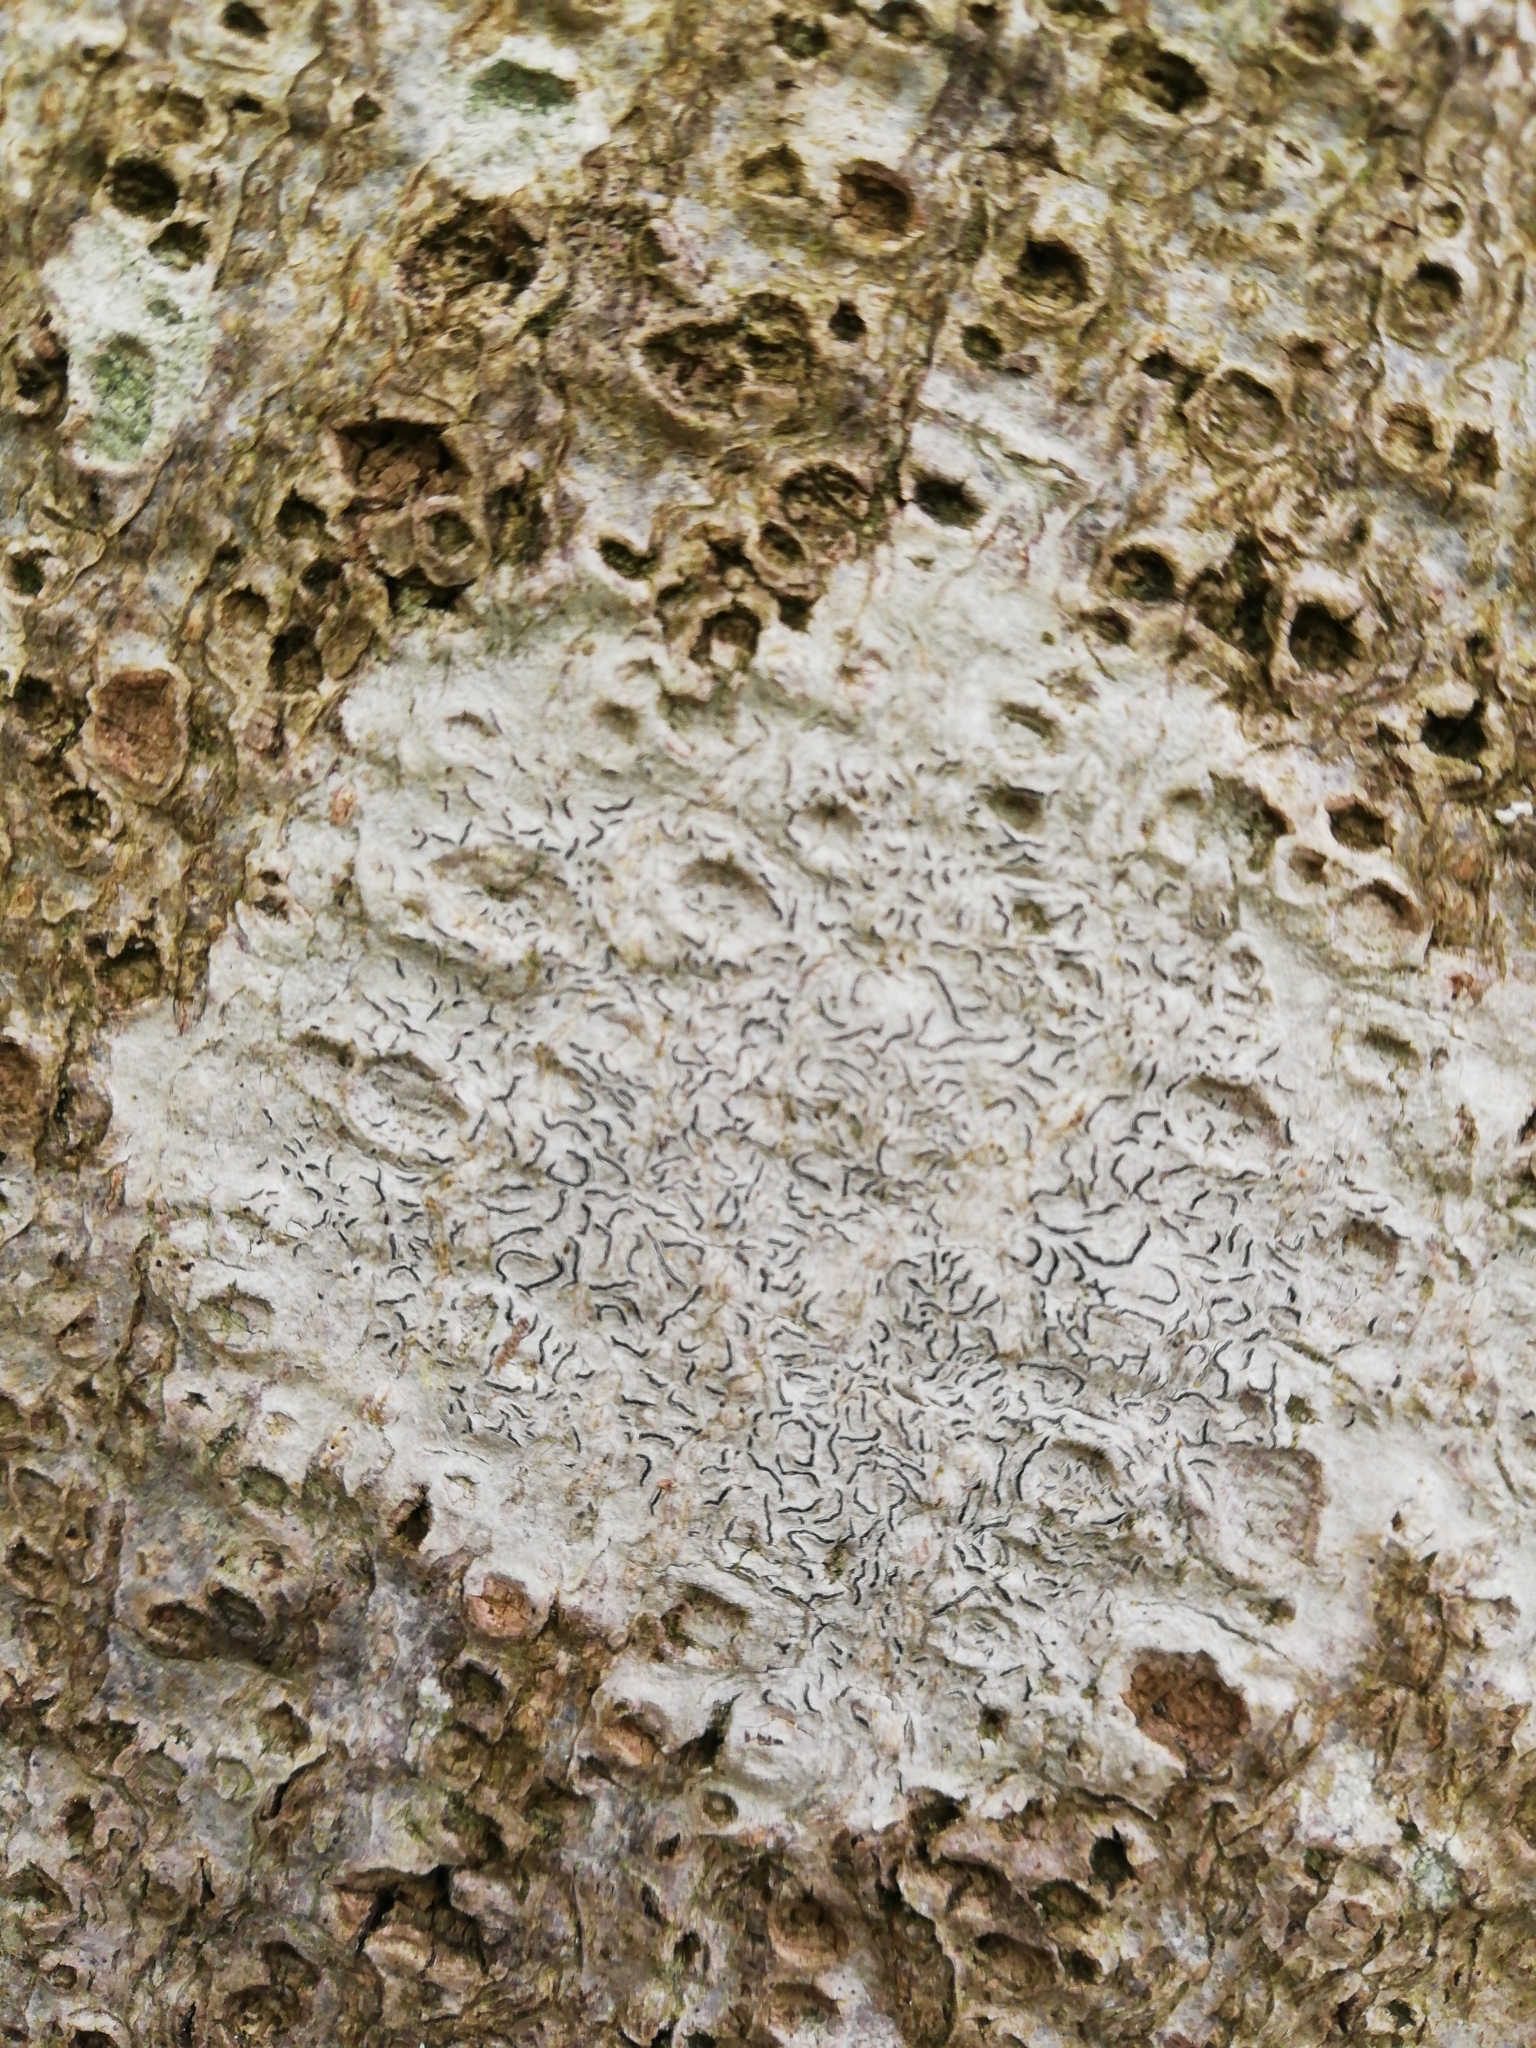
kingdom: Fungi
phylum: Ascomycota
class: Lecanoromycetes
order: Ostropales
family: Graphidaceae
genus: Graphis
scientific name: Graphis scripta
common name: Script lichen
